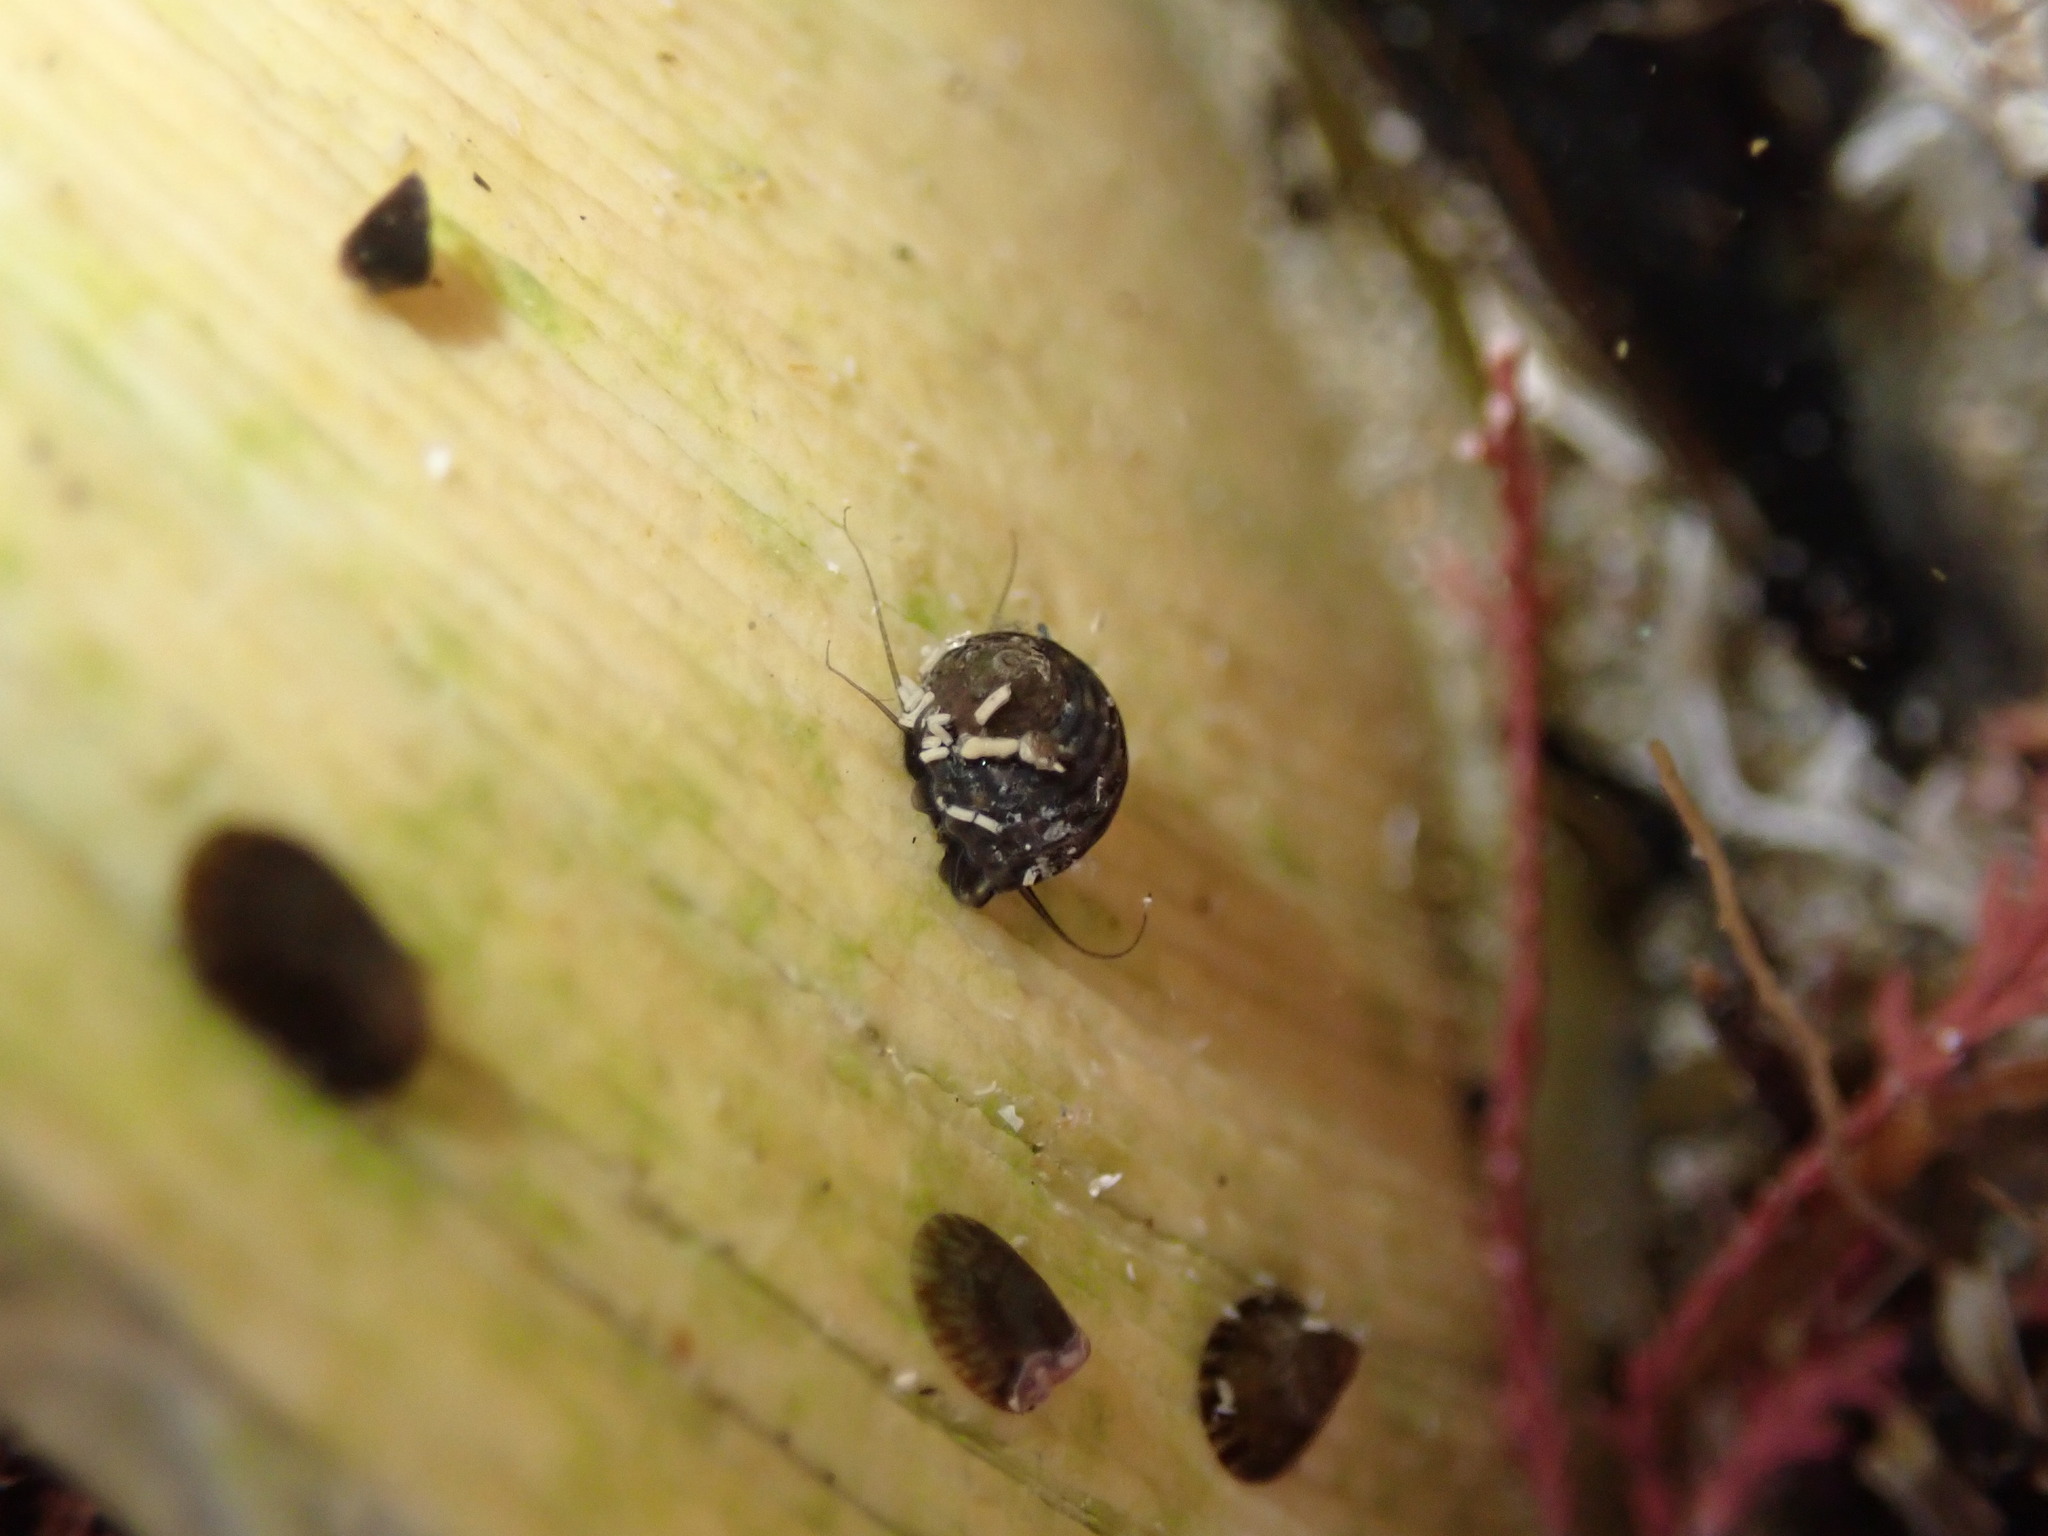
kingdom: Animalia
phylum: Mollusca
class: Gastropoda
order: Trochida
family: Trochidae
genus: Diloma
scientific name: Diloma aethiops
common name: Scorched monodont
